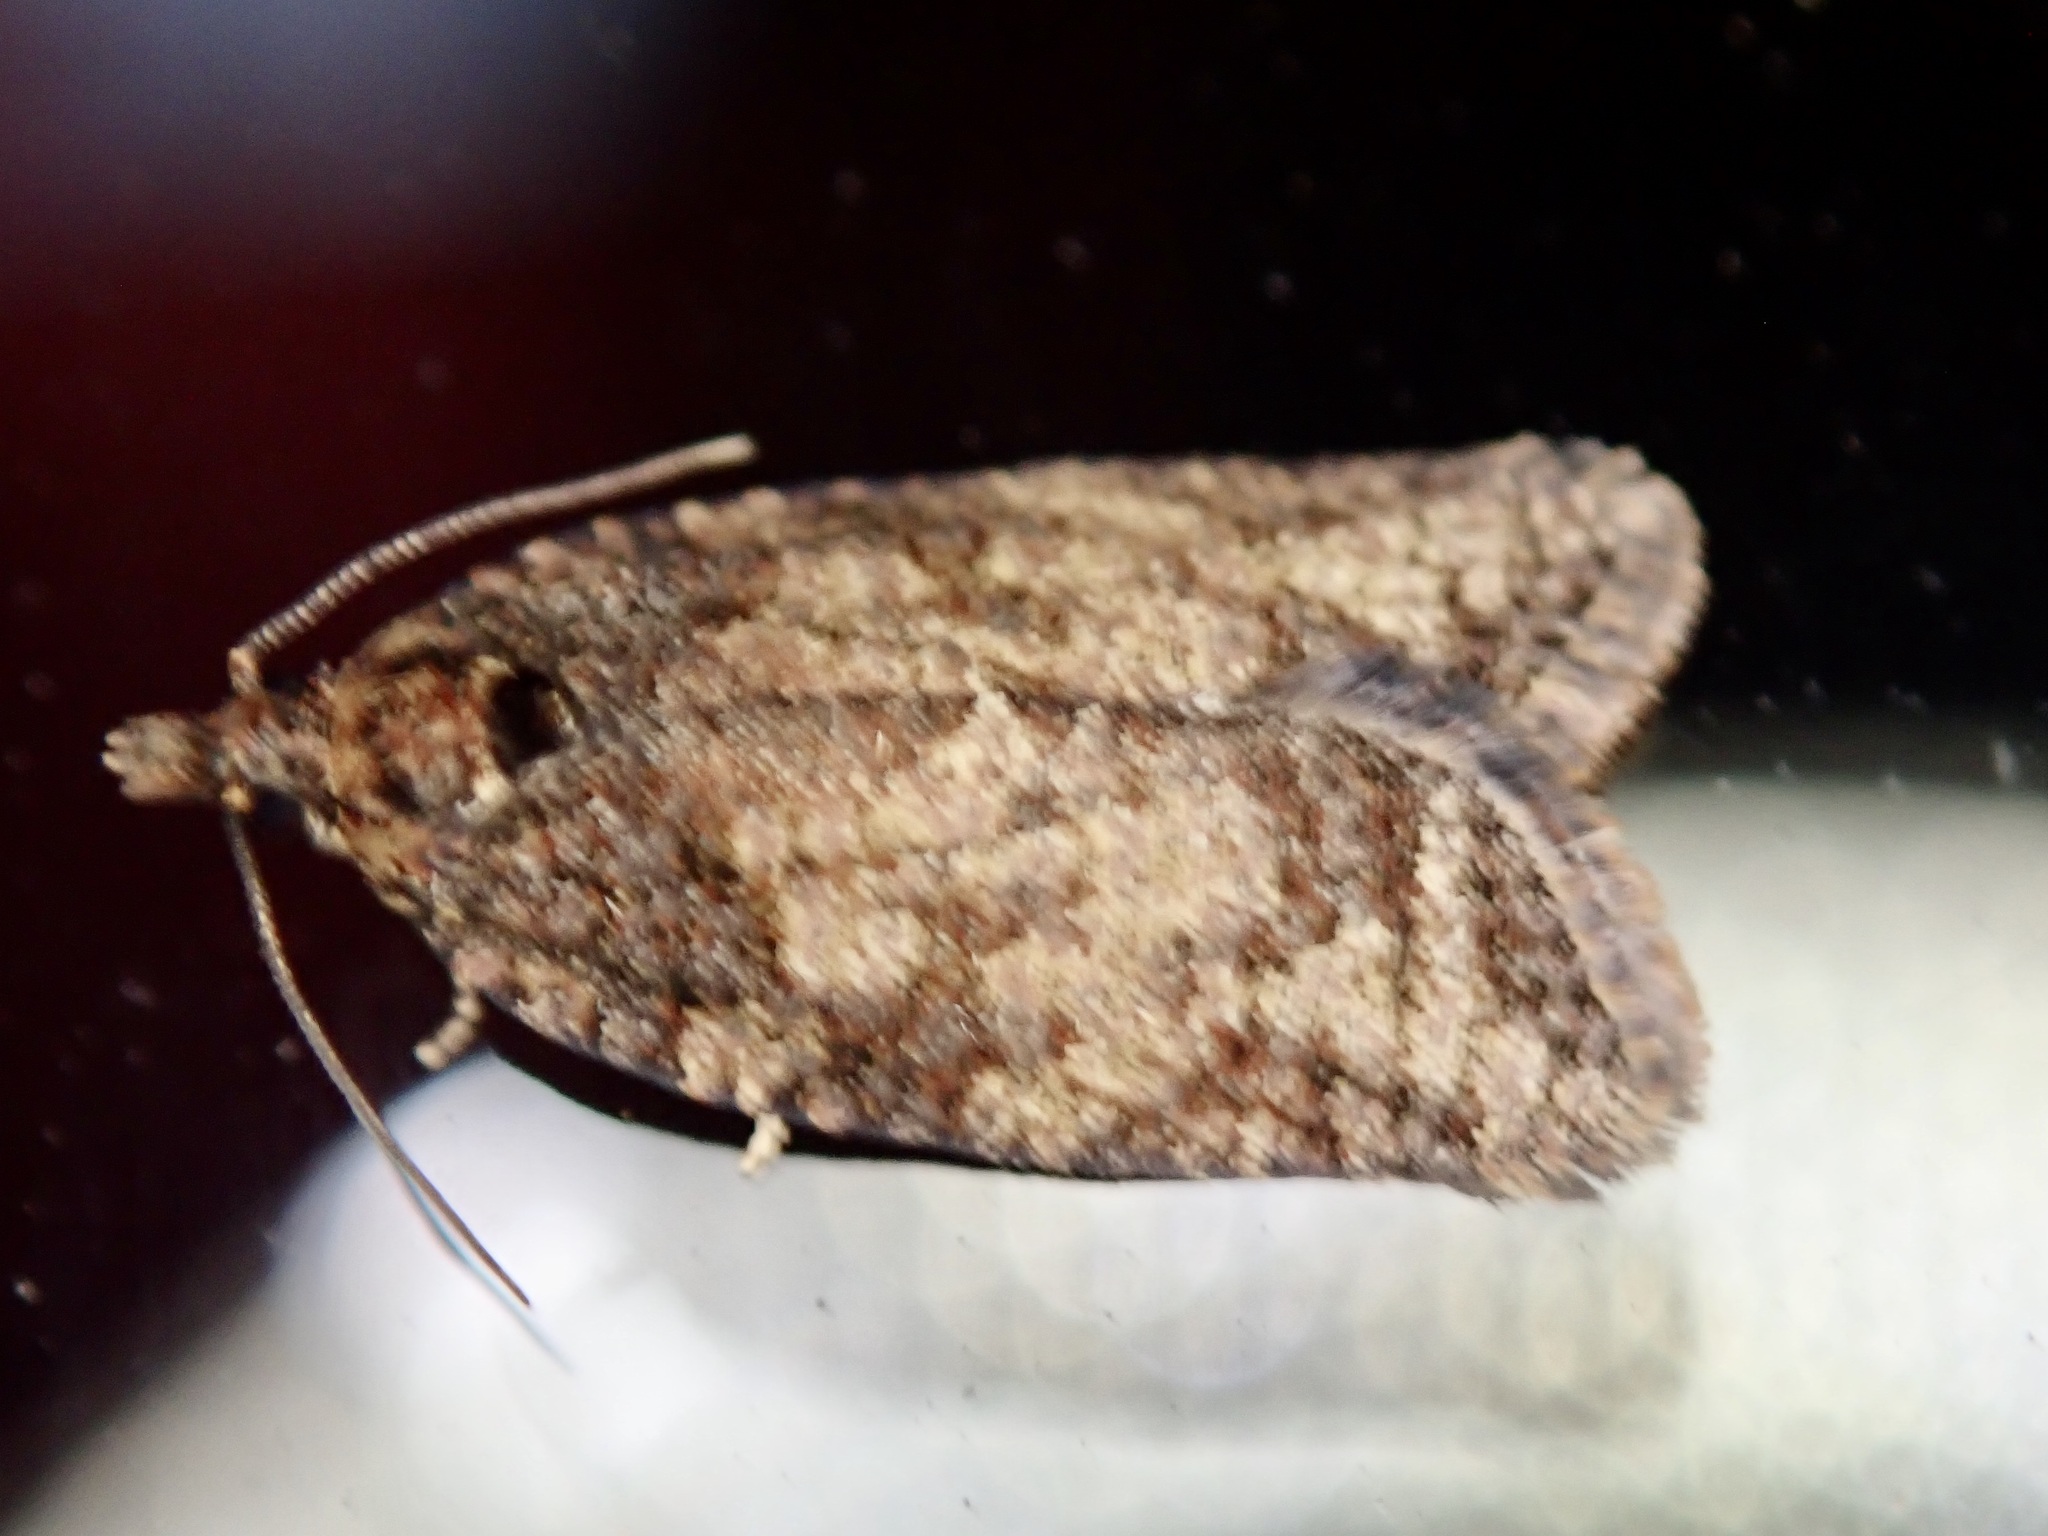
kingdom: Animalia
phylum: Arthropoda
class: Insecta
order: Lepidoptera
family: Tortricidae
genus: Capua
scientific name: Capua intractana
